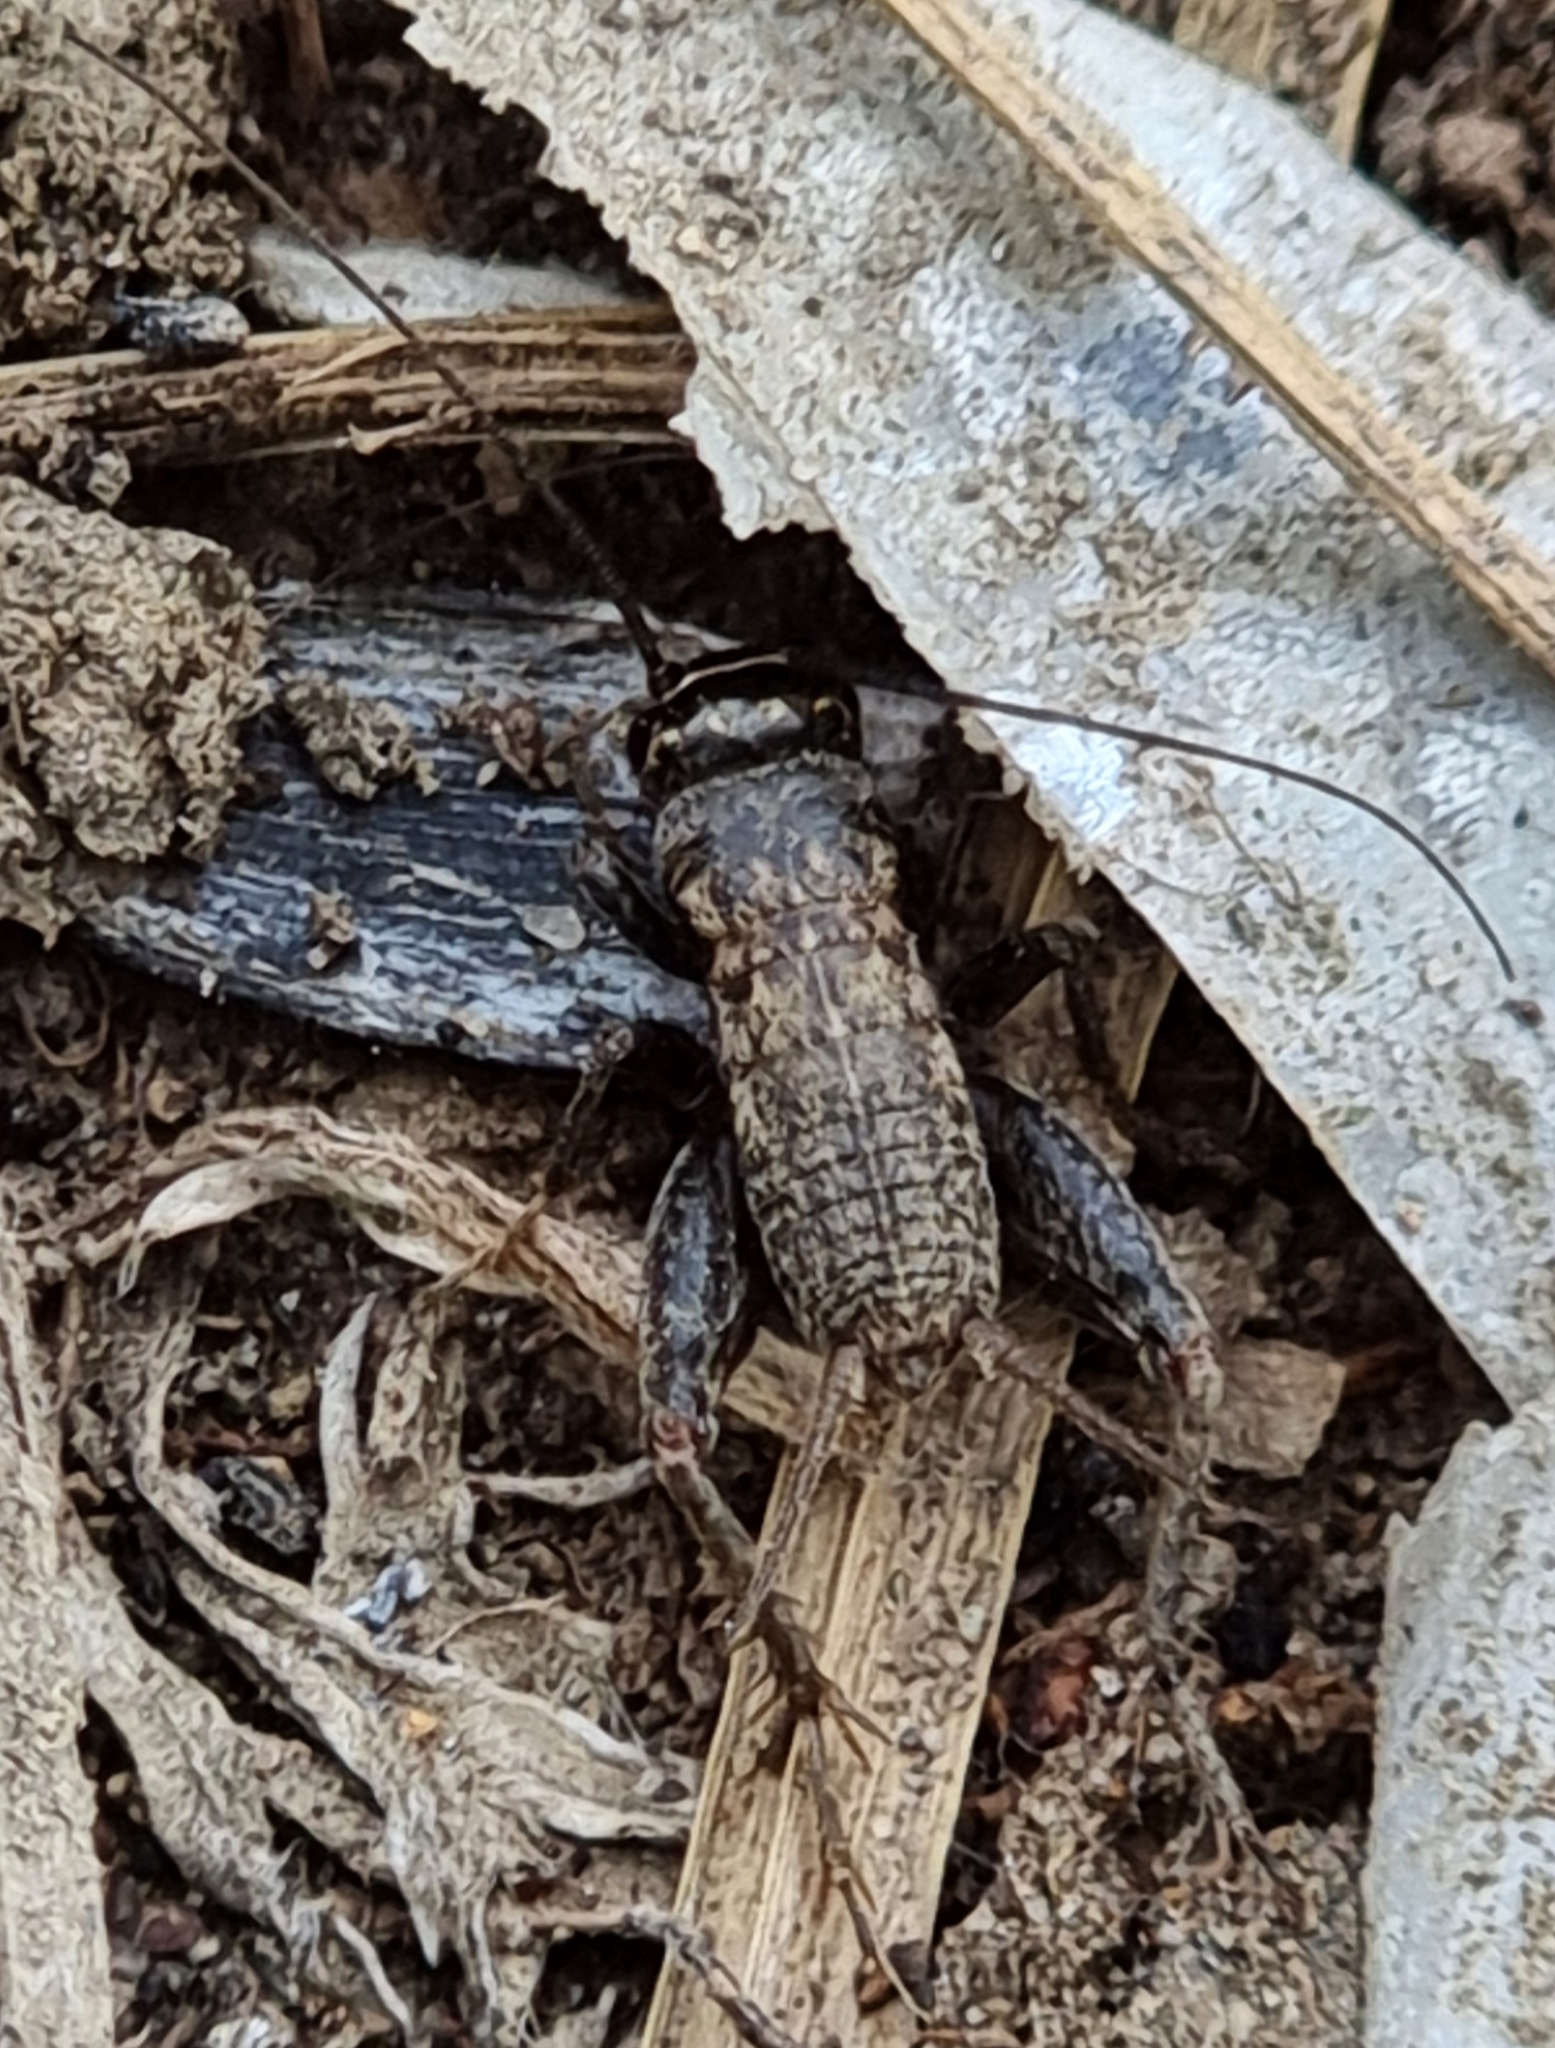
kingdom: Animalia
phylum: Arthropoda
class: Insecta
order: Orthoptera
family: Gryllidae
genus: Modicogryllus
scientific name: Modicogryllus frontalis
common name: Eastern cricket
